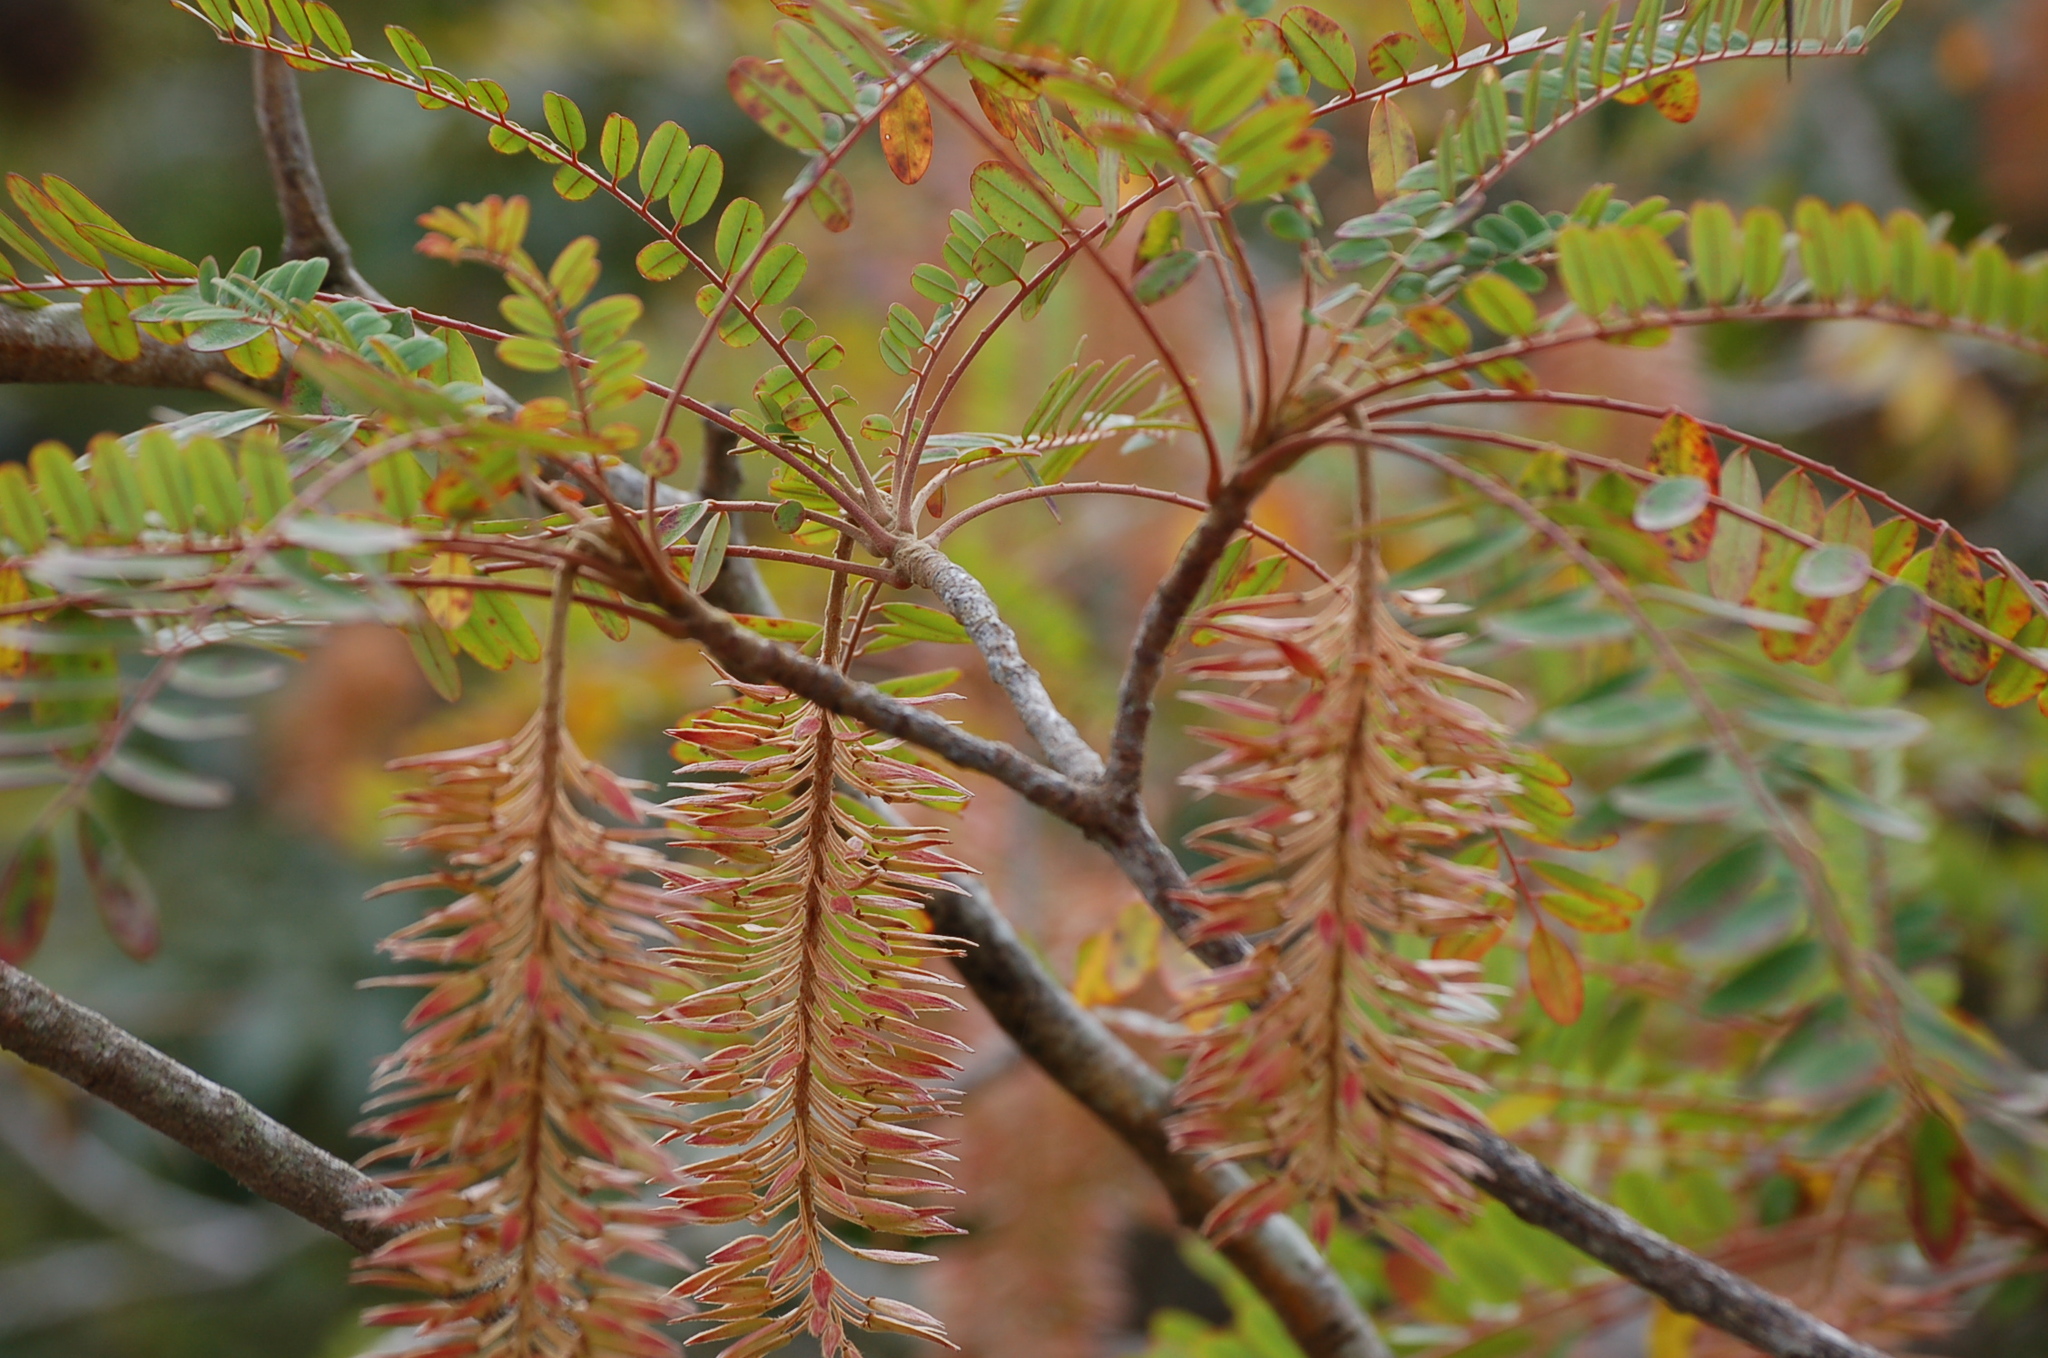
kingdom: Plantae
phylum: Tracheophyta
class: Magnoliopsida
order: Picramniales
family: Picramniaceae
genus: Alvaradoa
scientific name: Alvaradoa amorphoides
